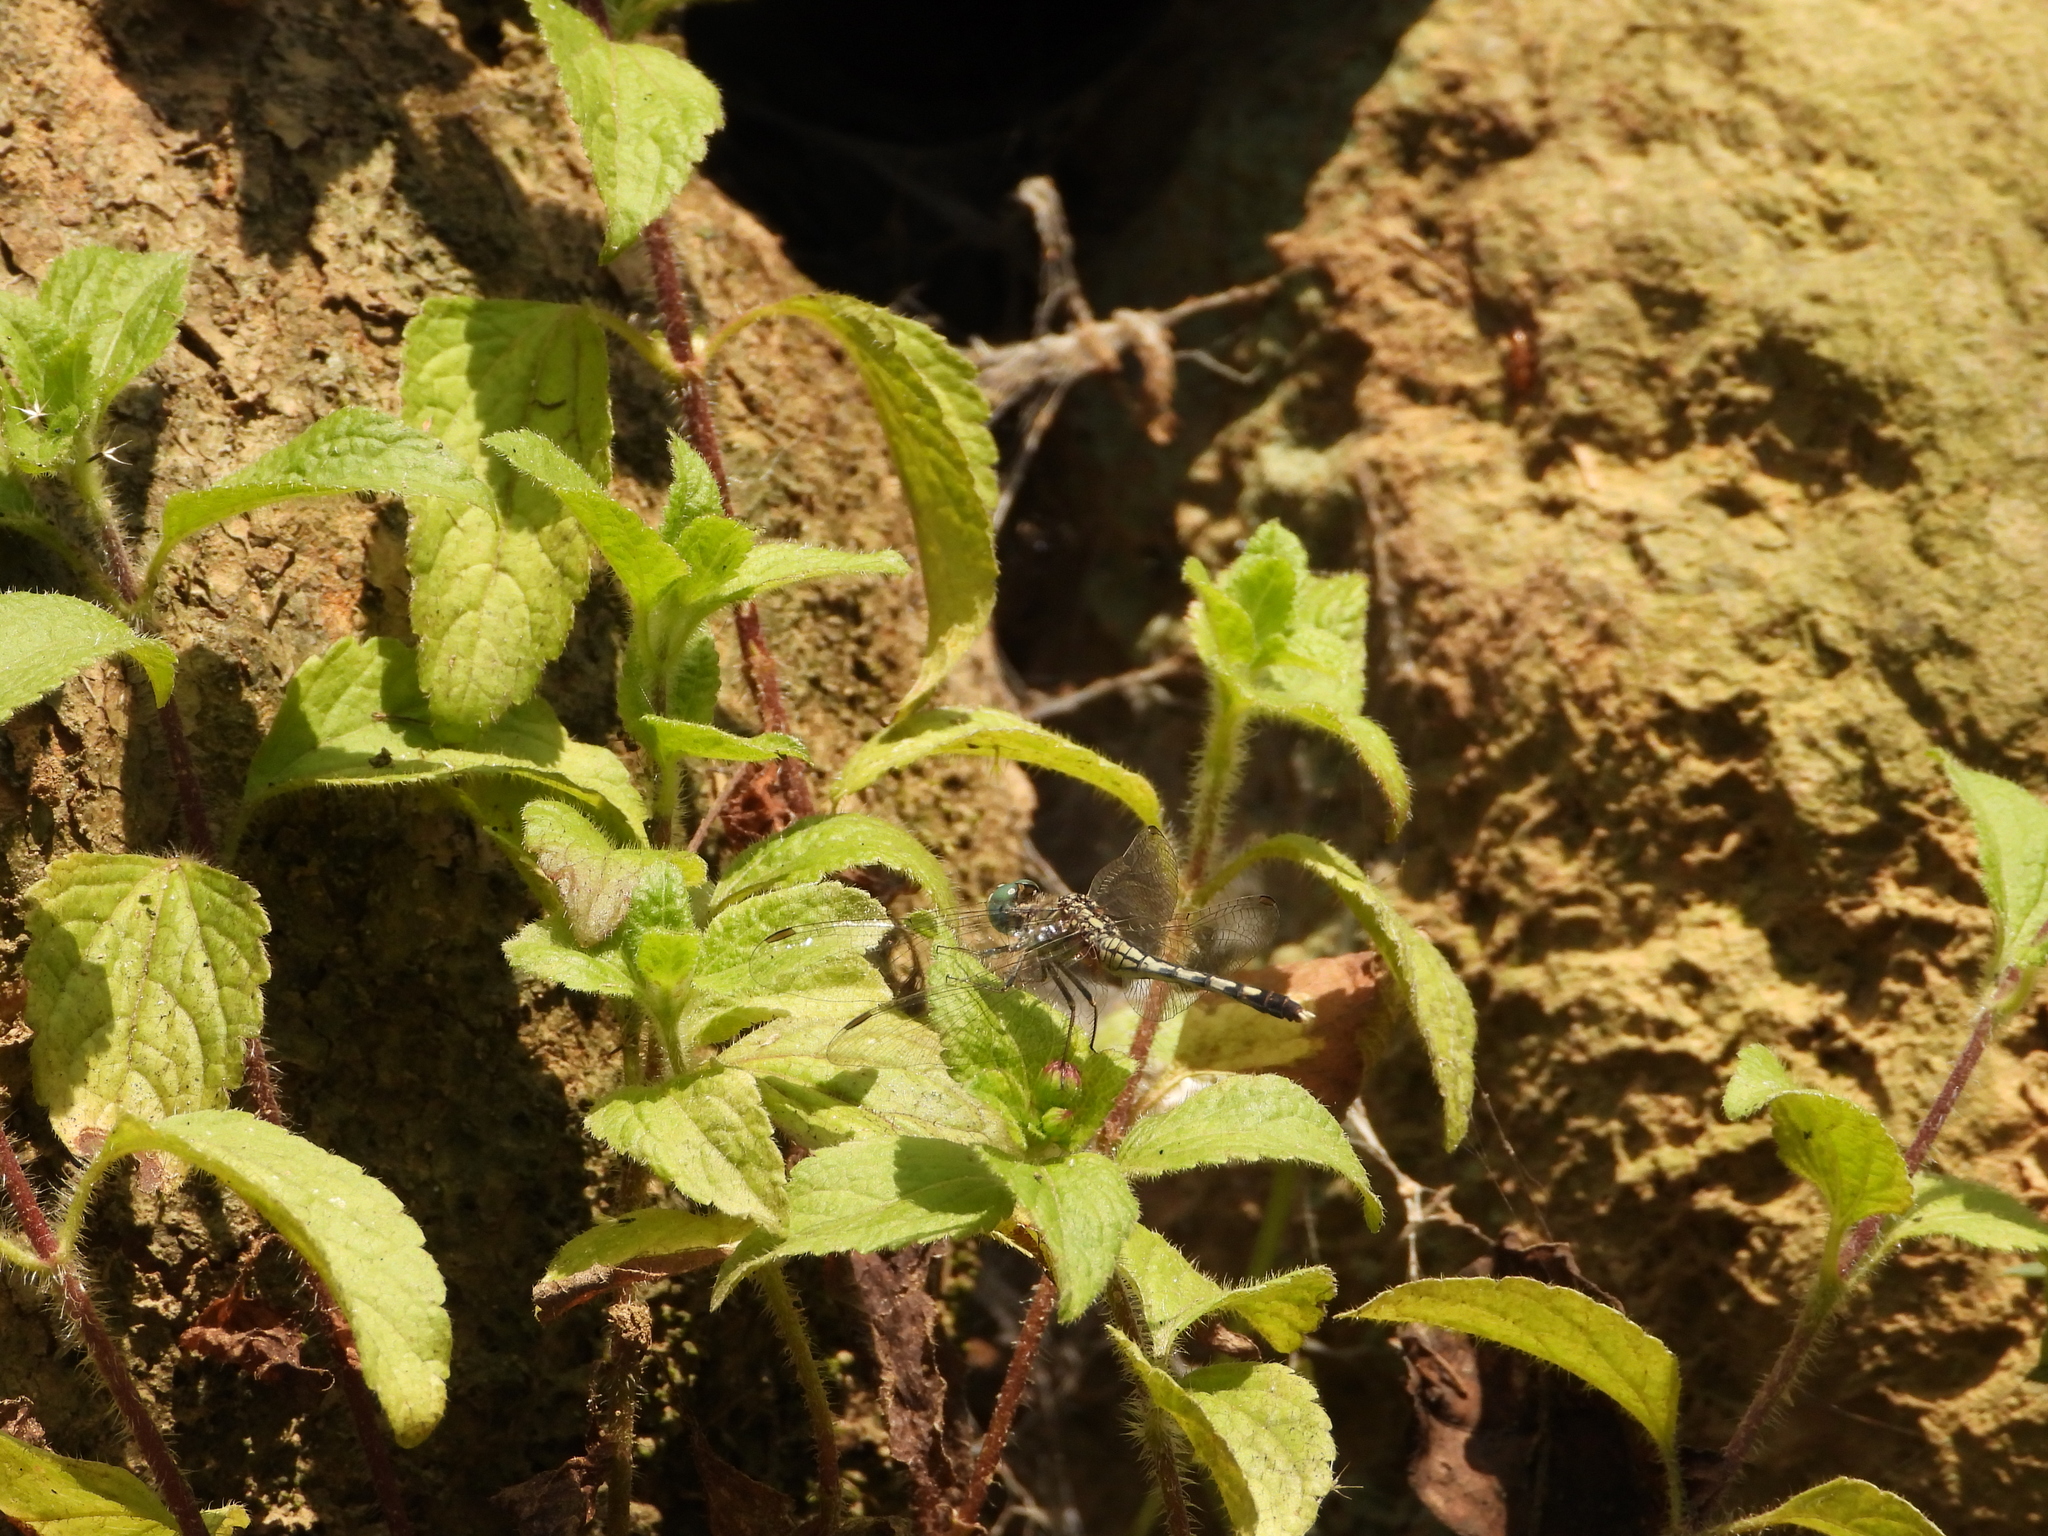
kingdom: Animalia
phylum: Arthropoda
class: Insecta
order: Odonata
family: Libellulidae
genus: Diplacodes
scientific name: Diplacodes trivialis
